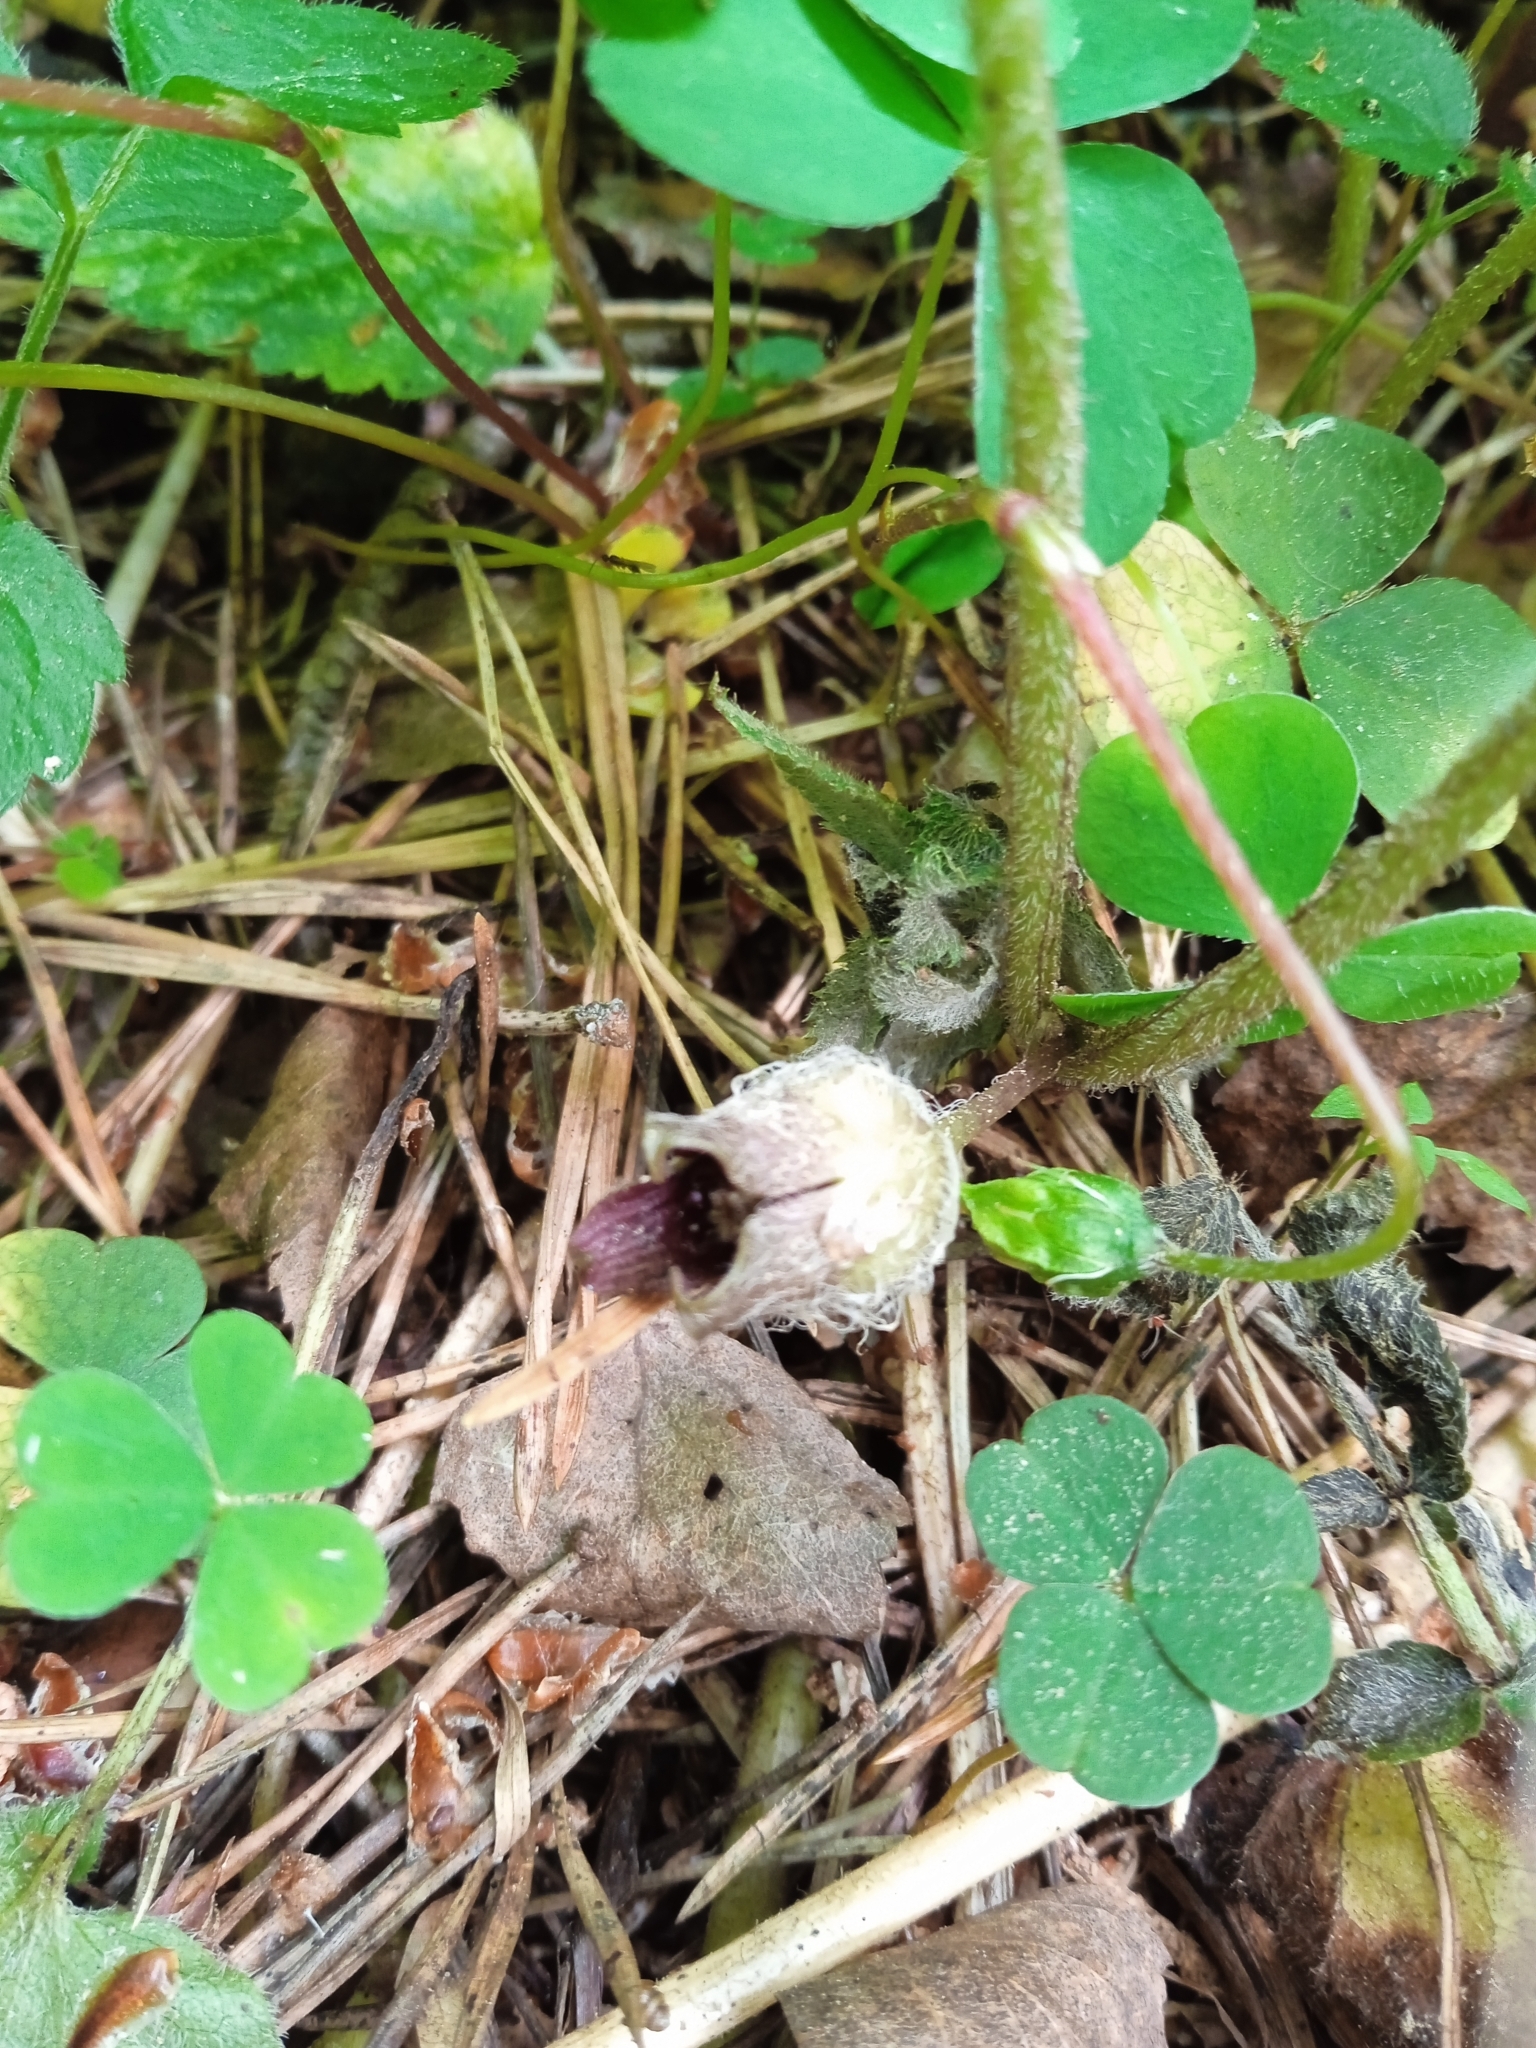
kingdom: Plantae
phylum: Tracheophyta
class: Magnoliopsida
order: Piperales
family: Aristolochiaceae
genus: Asarum
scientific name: Asarum europaeum
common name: Asarabacca
